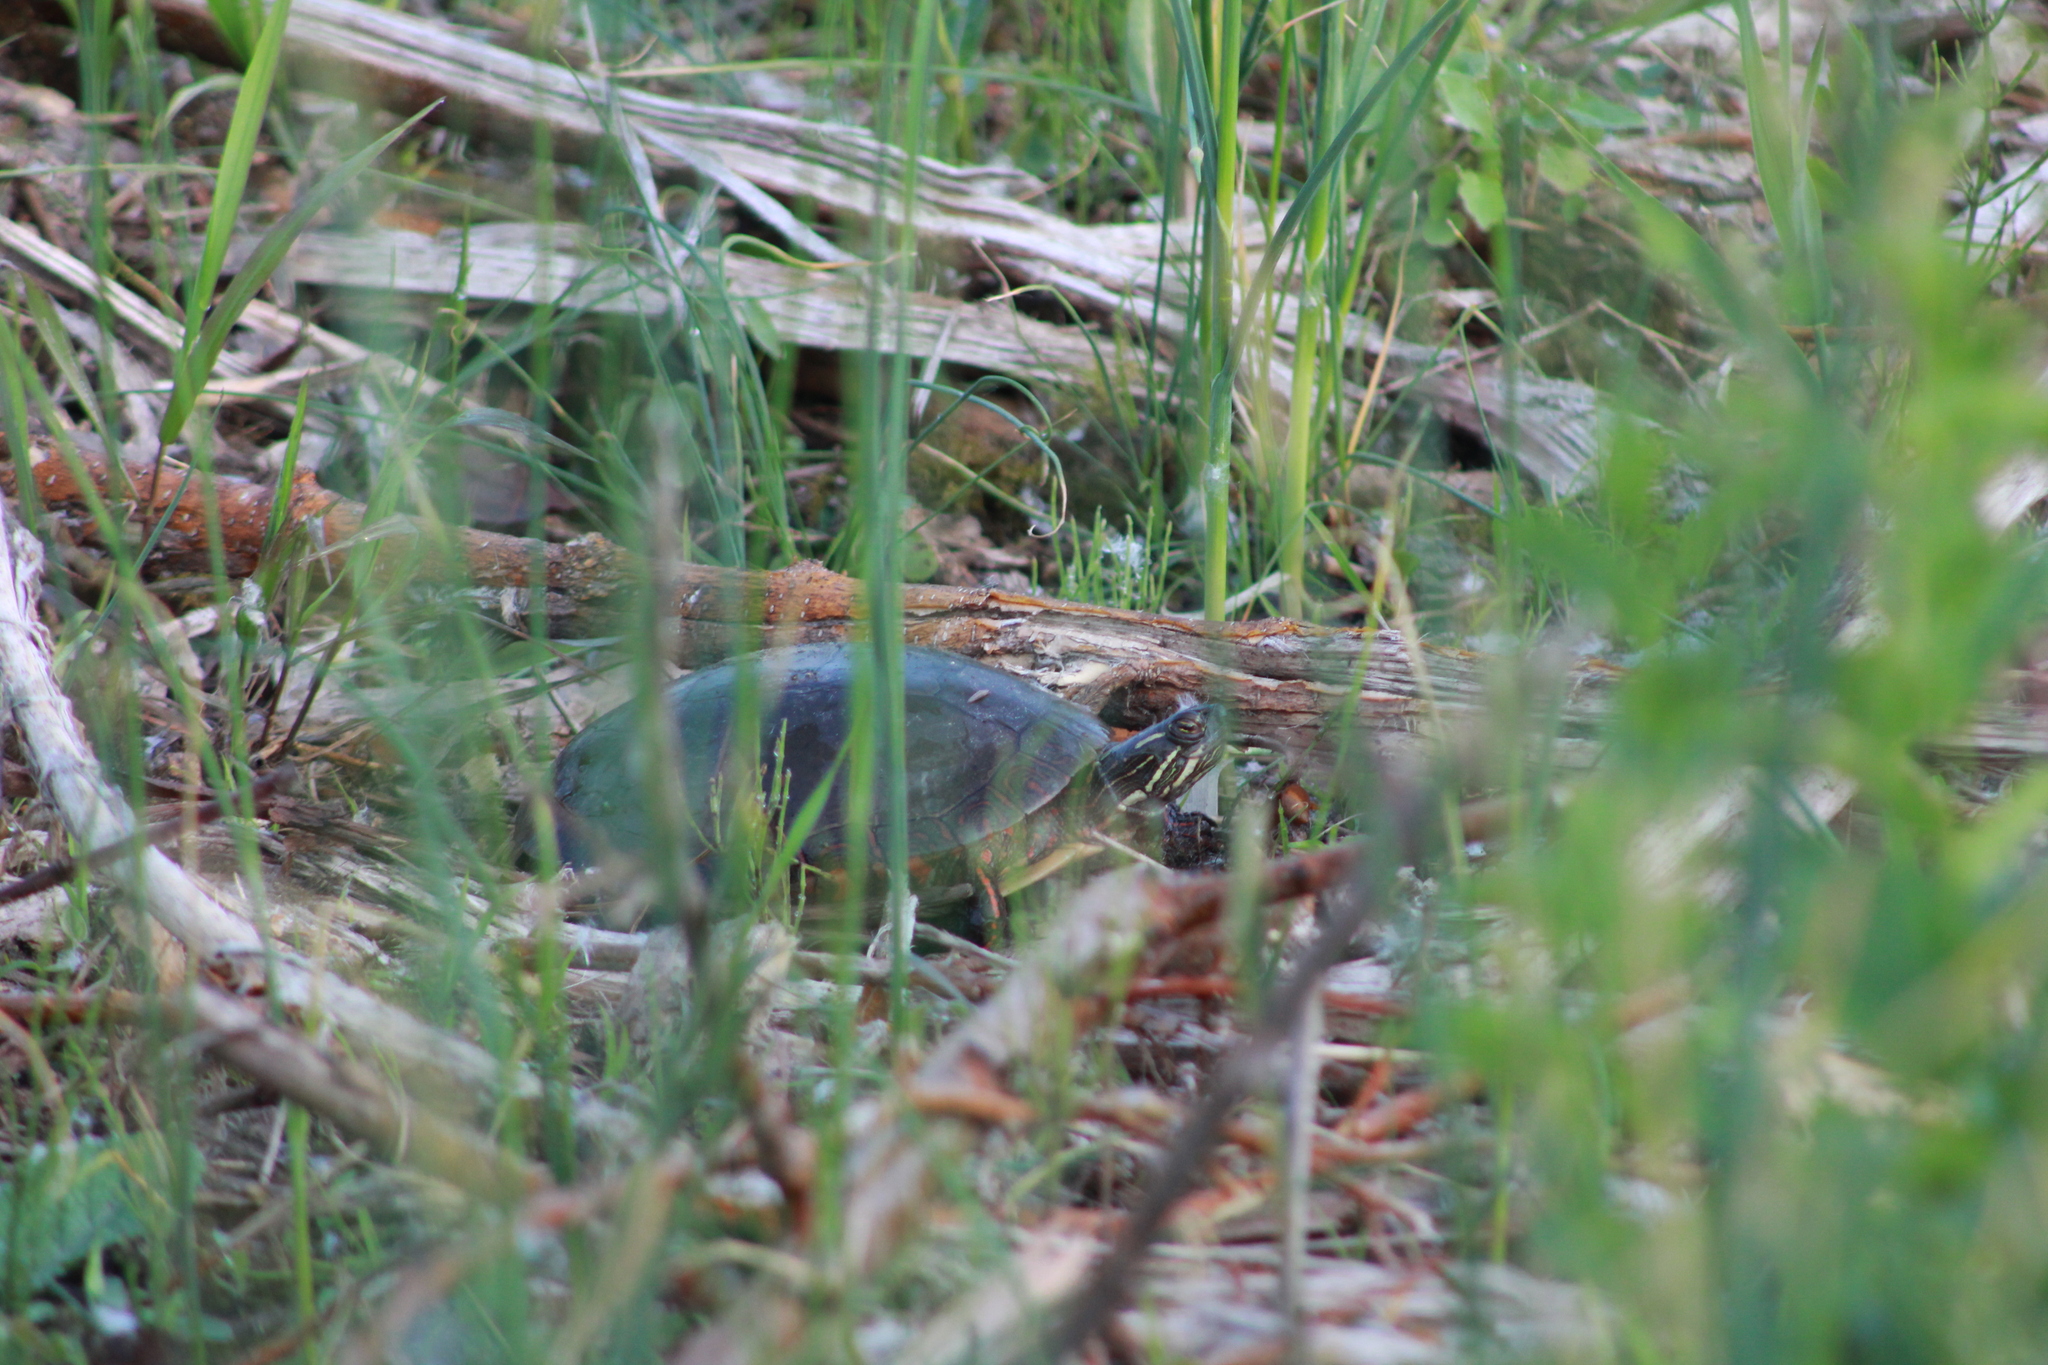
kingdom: Animalia
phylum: Chordata
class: Testudines
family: Emydidae
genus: Chrysemys
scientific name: Chrysemys picta
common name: Painted turtle
